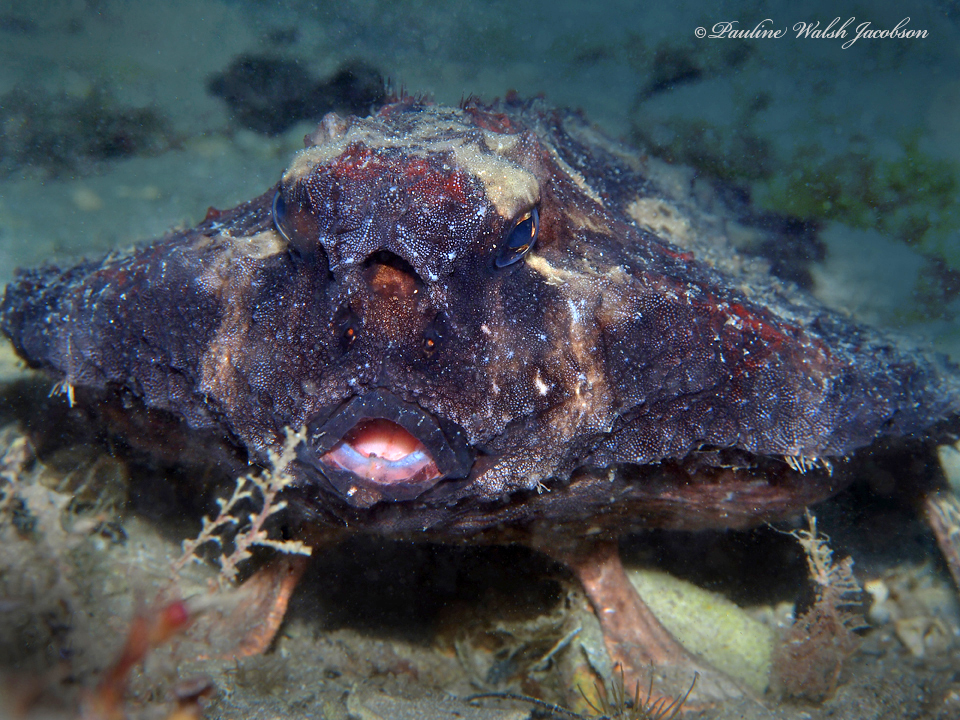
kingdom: Animalia
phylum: Chordata
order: Lophiiformes
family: Ogcocephalidae
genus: Ogcocephalus
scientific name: Ogcocephalus nasutus
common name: Shortnose batfish
